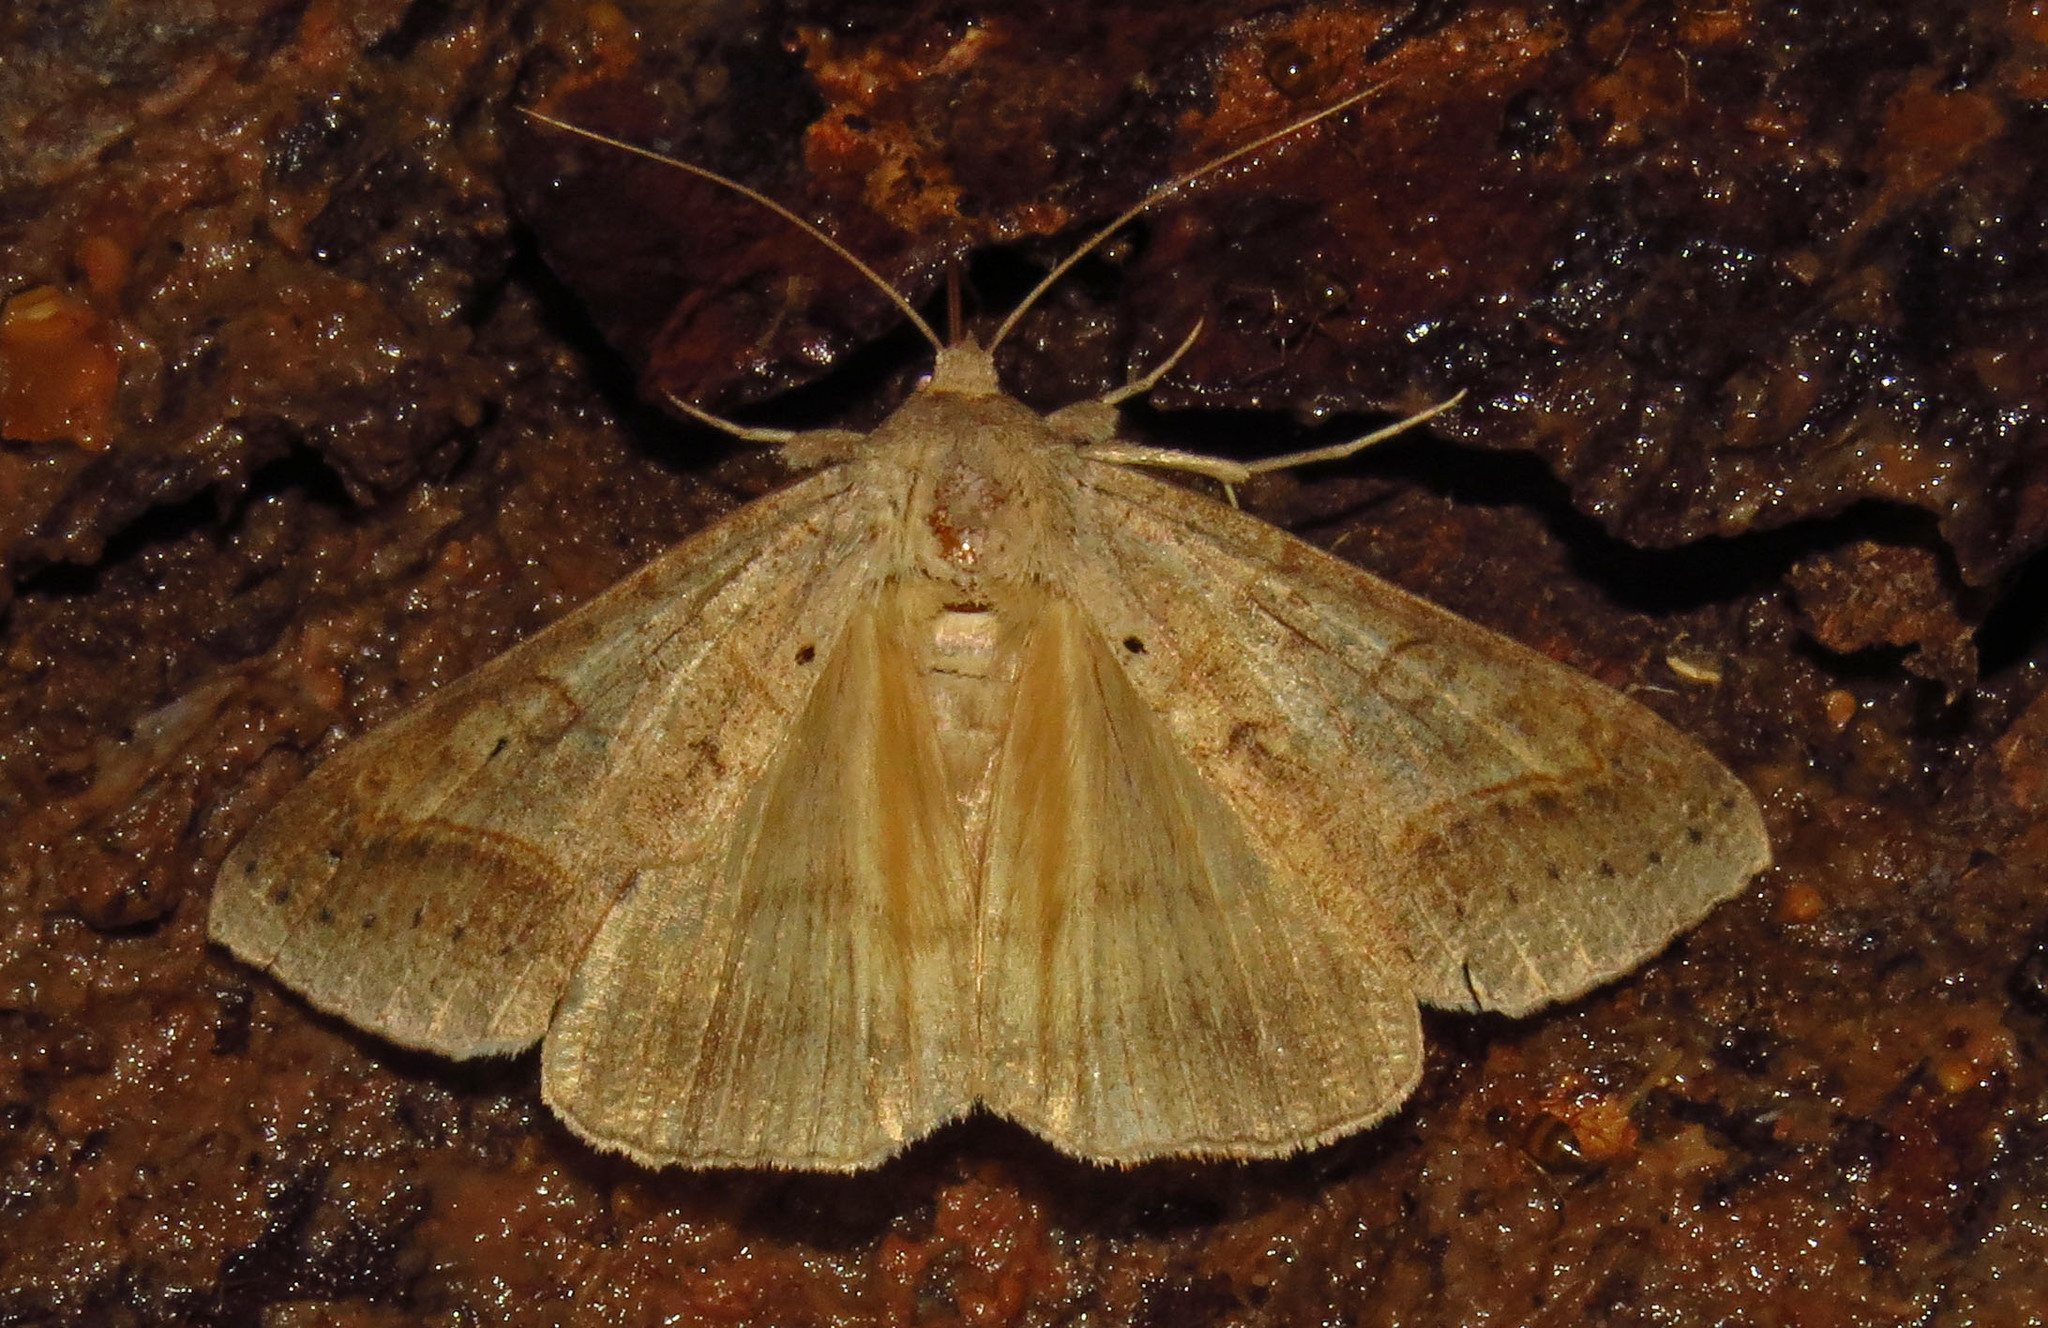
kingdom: Animalia
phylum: Arthropoda
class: Insecta
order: Lepidoptera
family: Erebidae
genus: Mocis
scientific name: Mocis marcida
